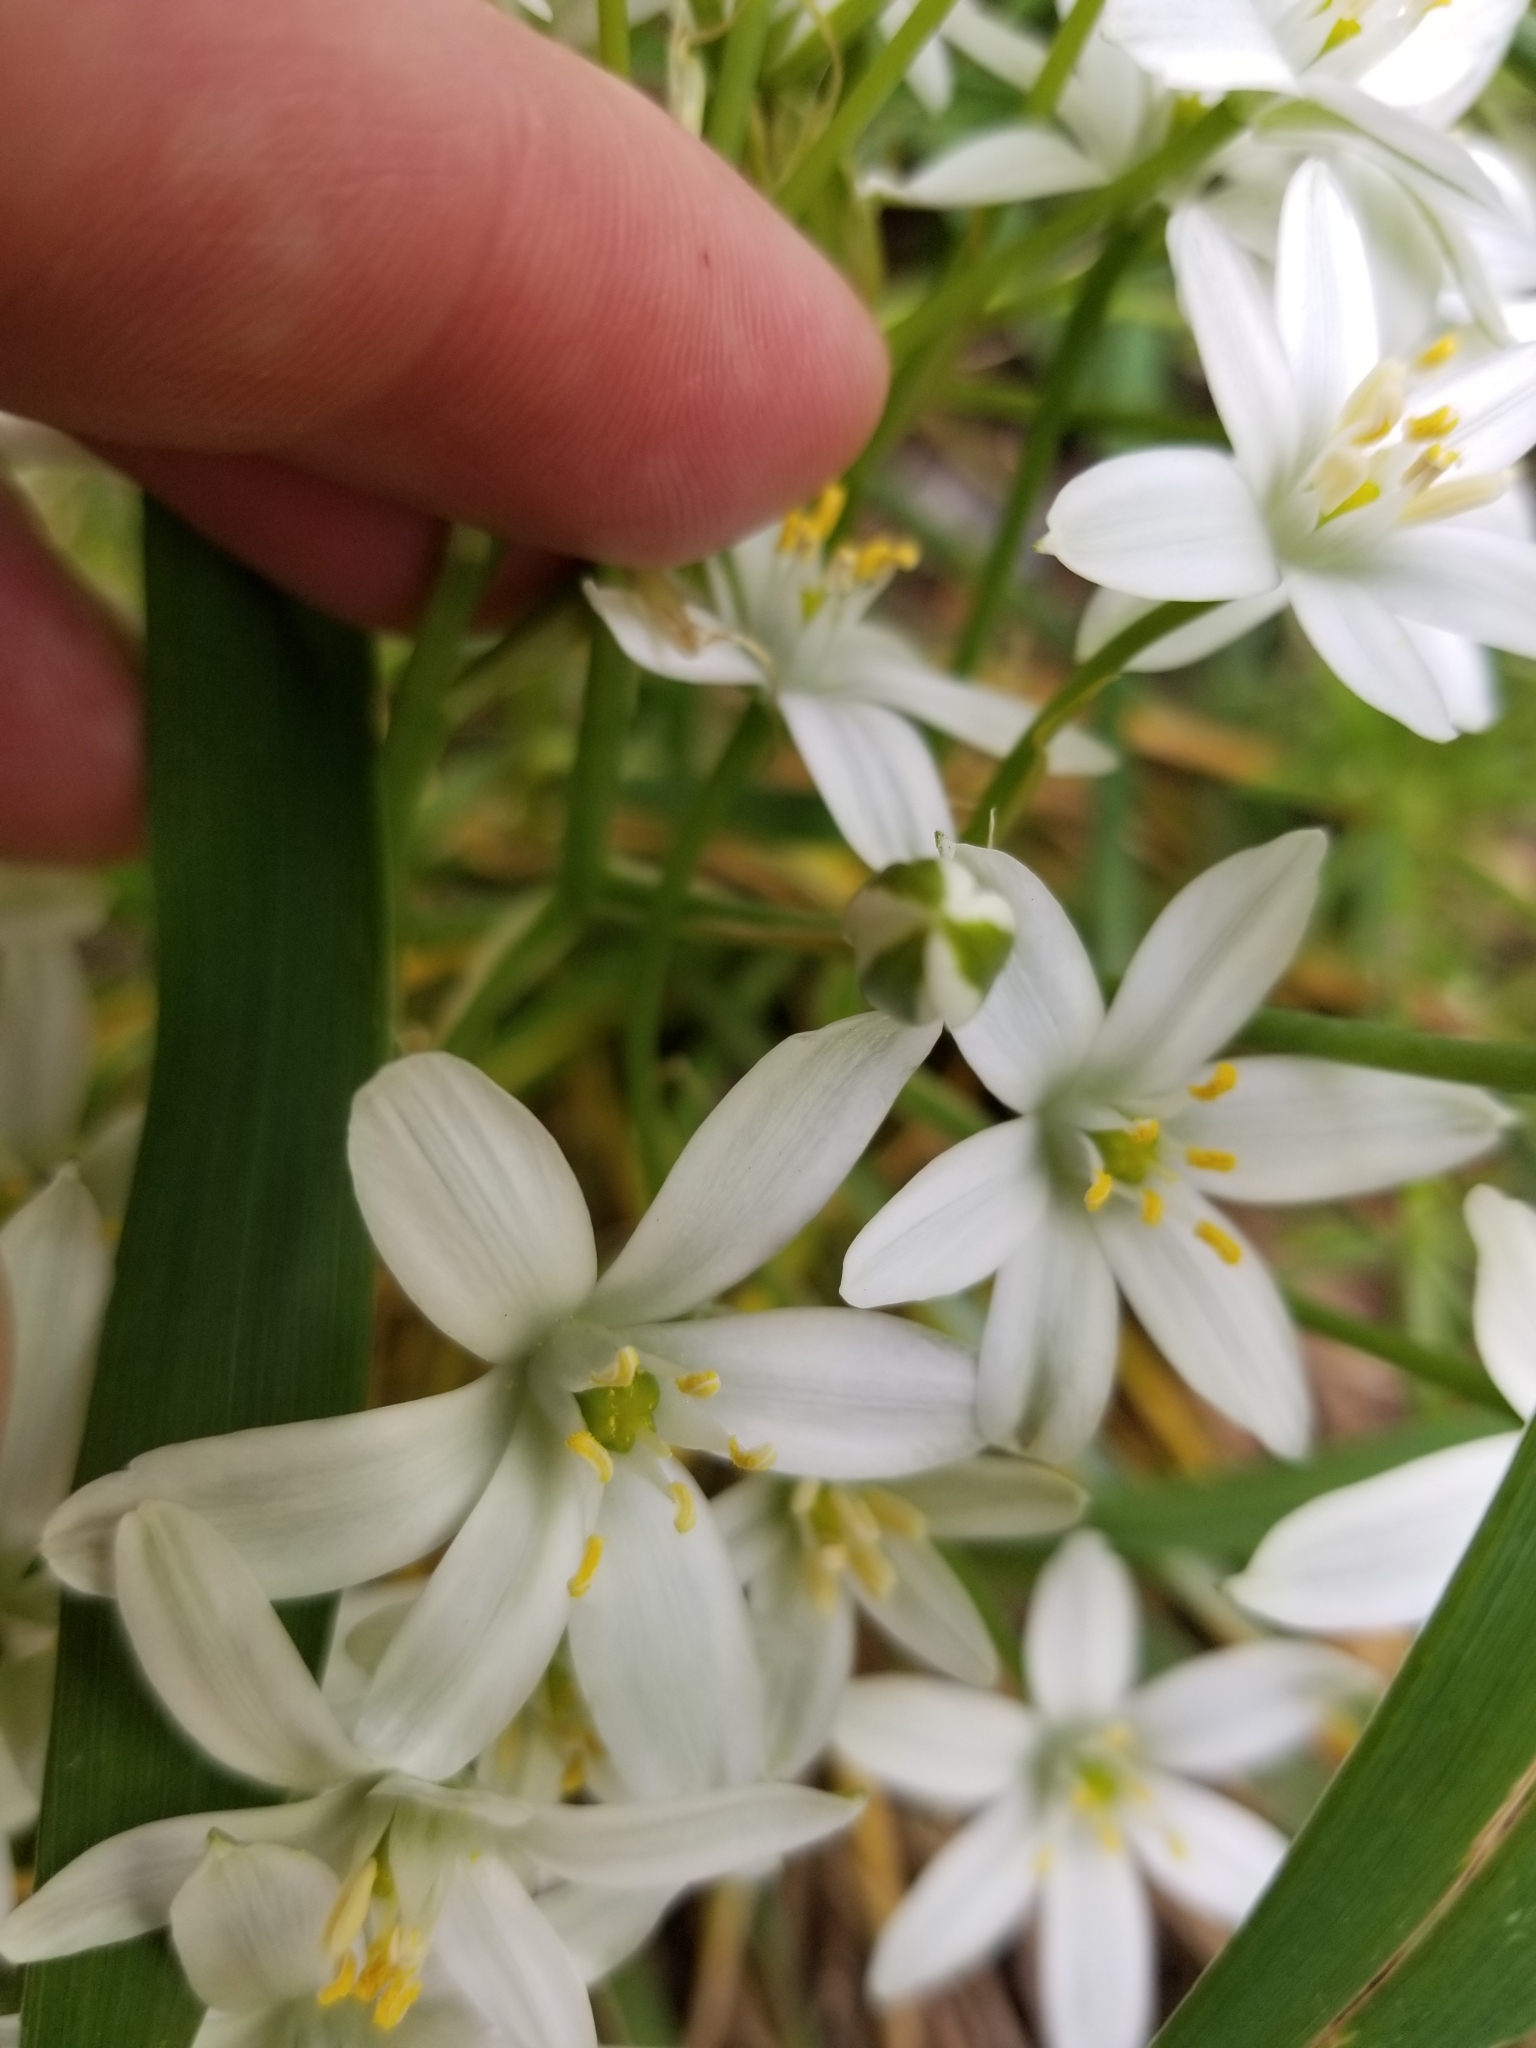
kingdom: Plantae
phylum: Tracheophyta
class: Liliopsida
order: Asparagales
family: Asparagaceae
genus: Ornithogalum
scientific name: Ornithogalum umbellatum
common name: Garden star-of-bethlehem
